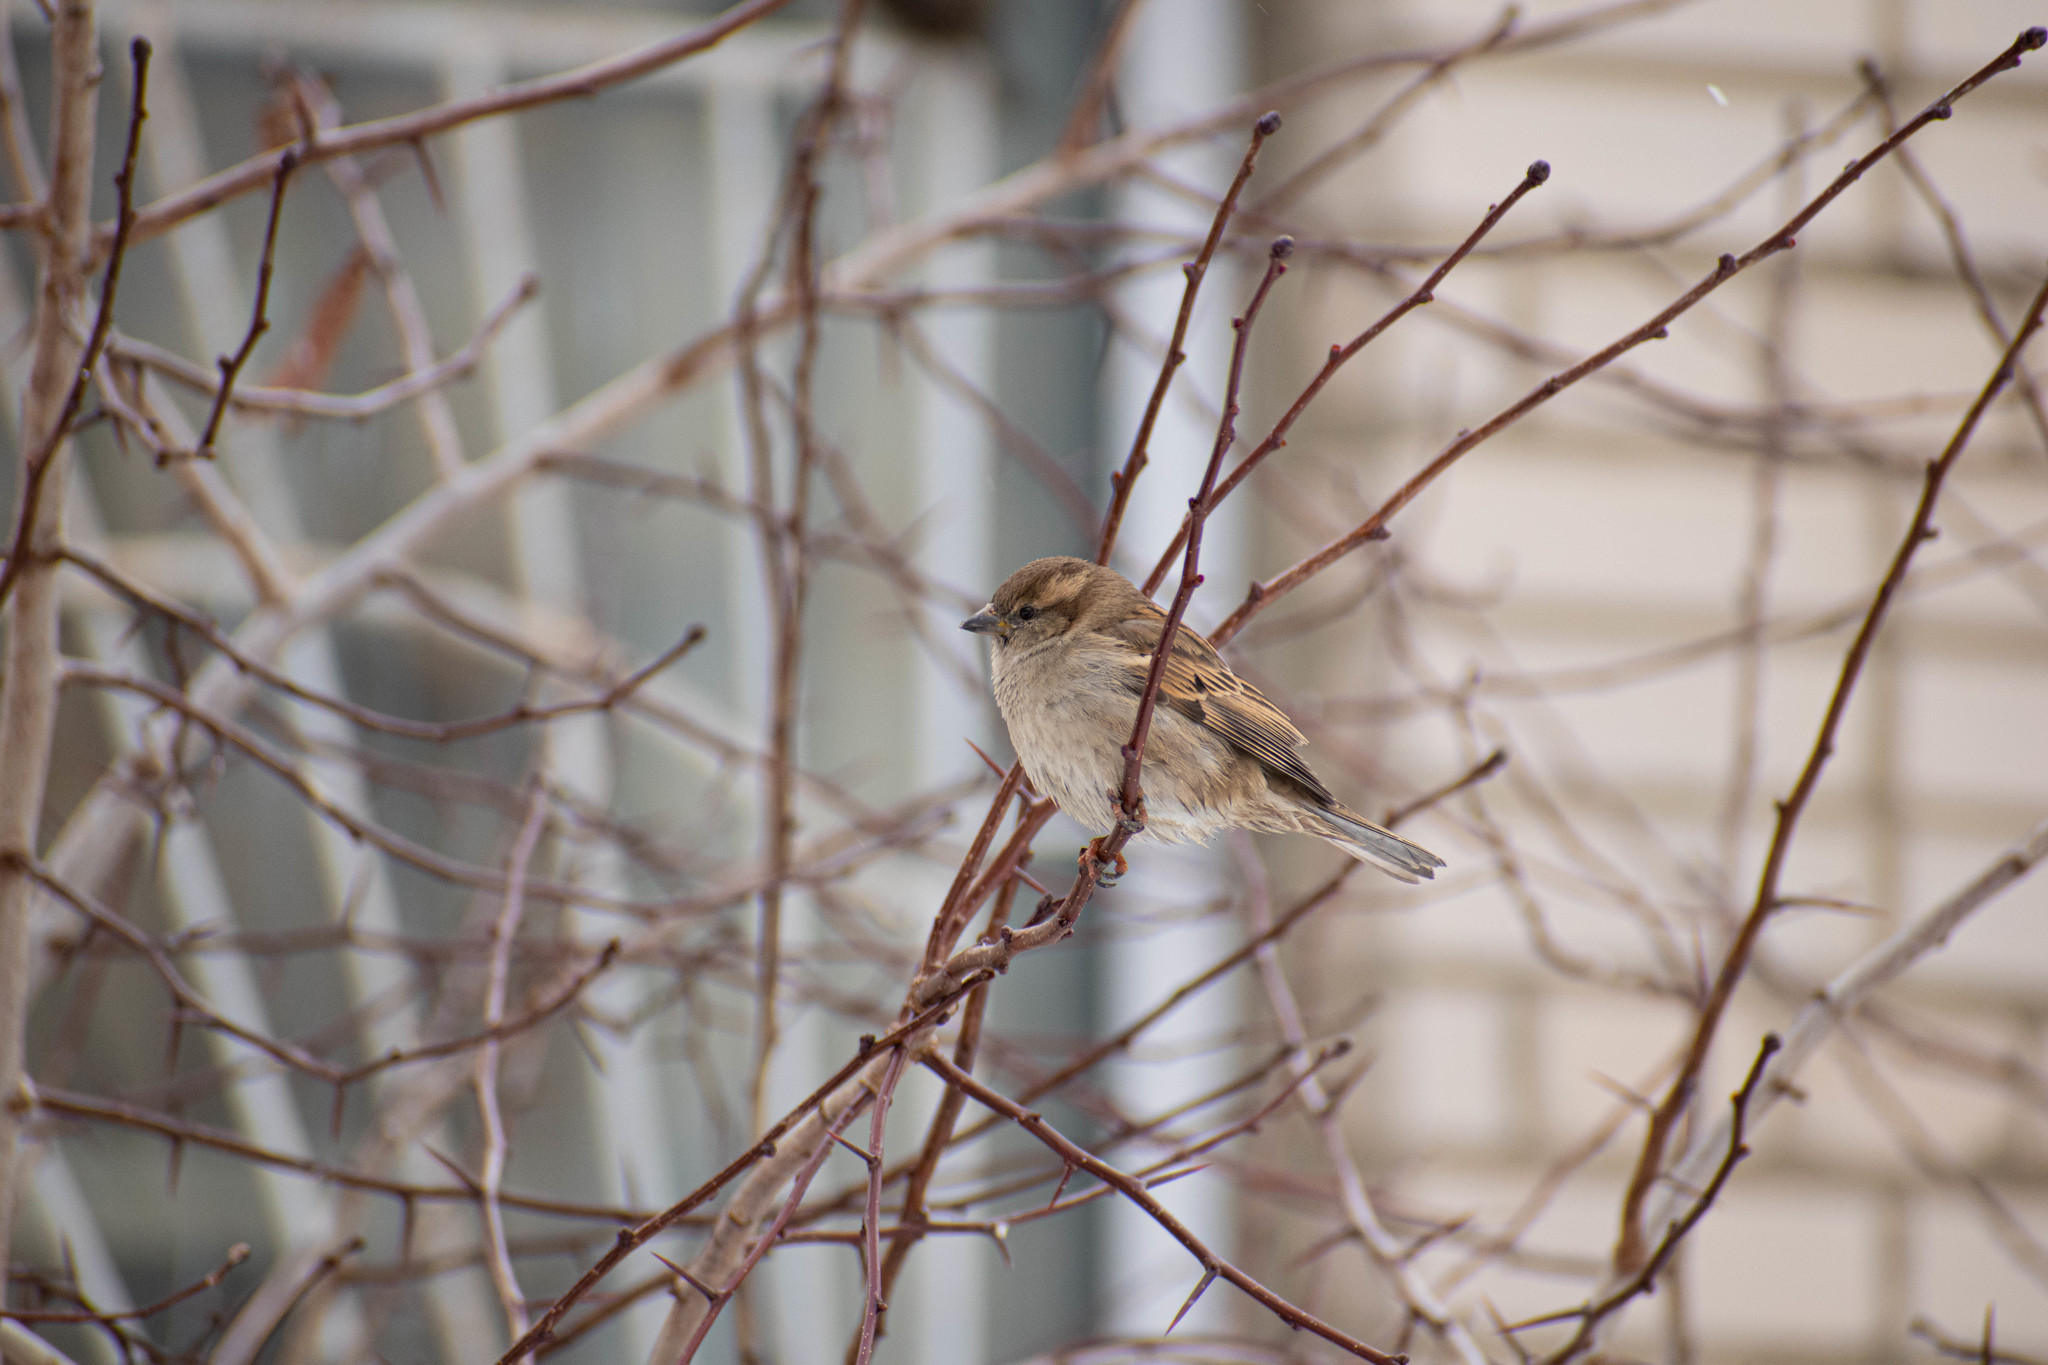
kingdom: Animalia
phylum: Chordata
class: Aves
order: Passeriformes
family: Passeridae
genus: Passer
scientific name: Passer domesticus
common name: House sparrow
